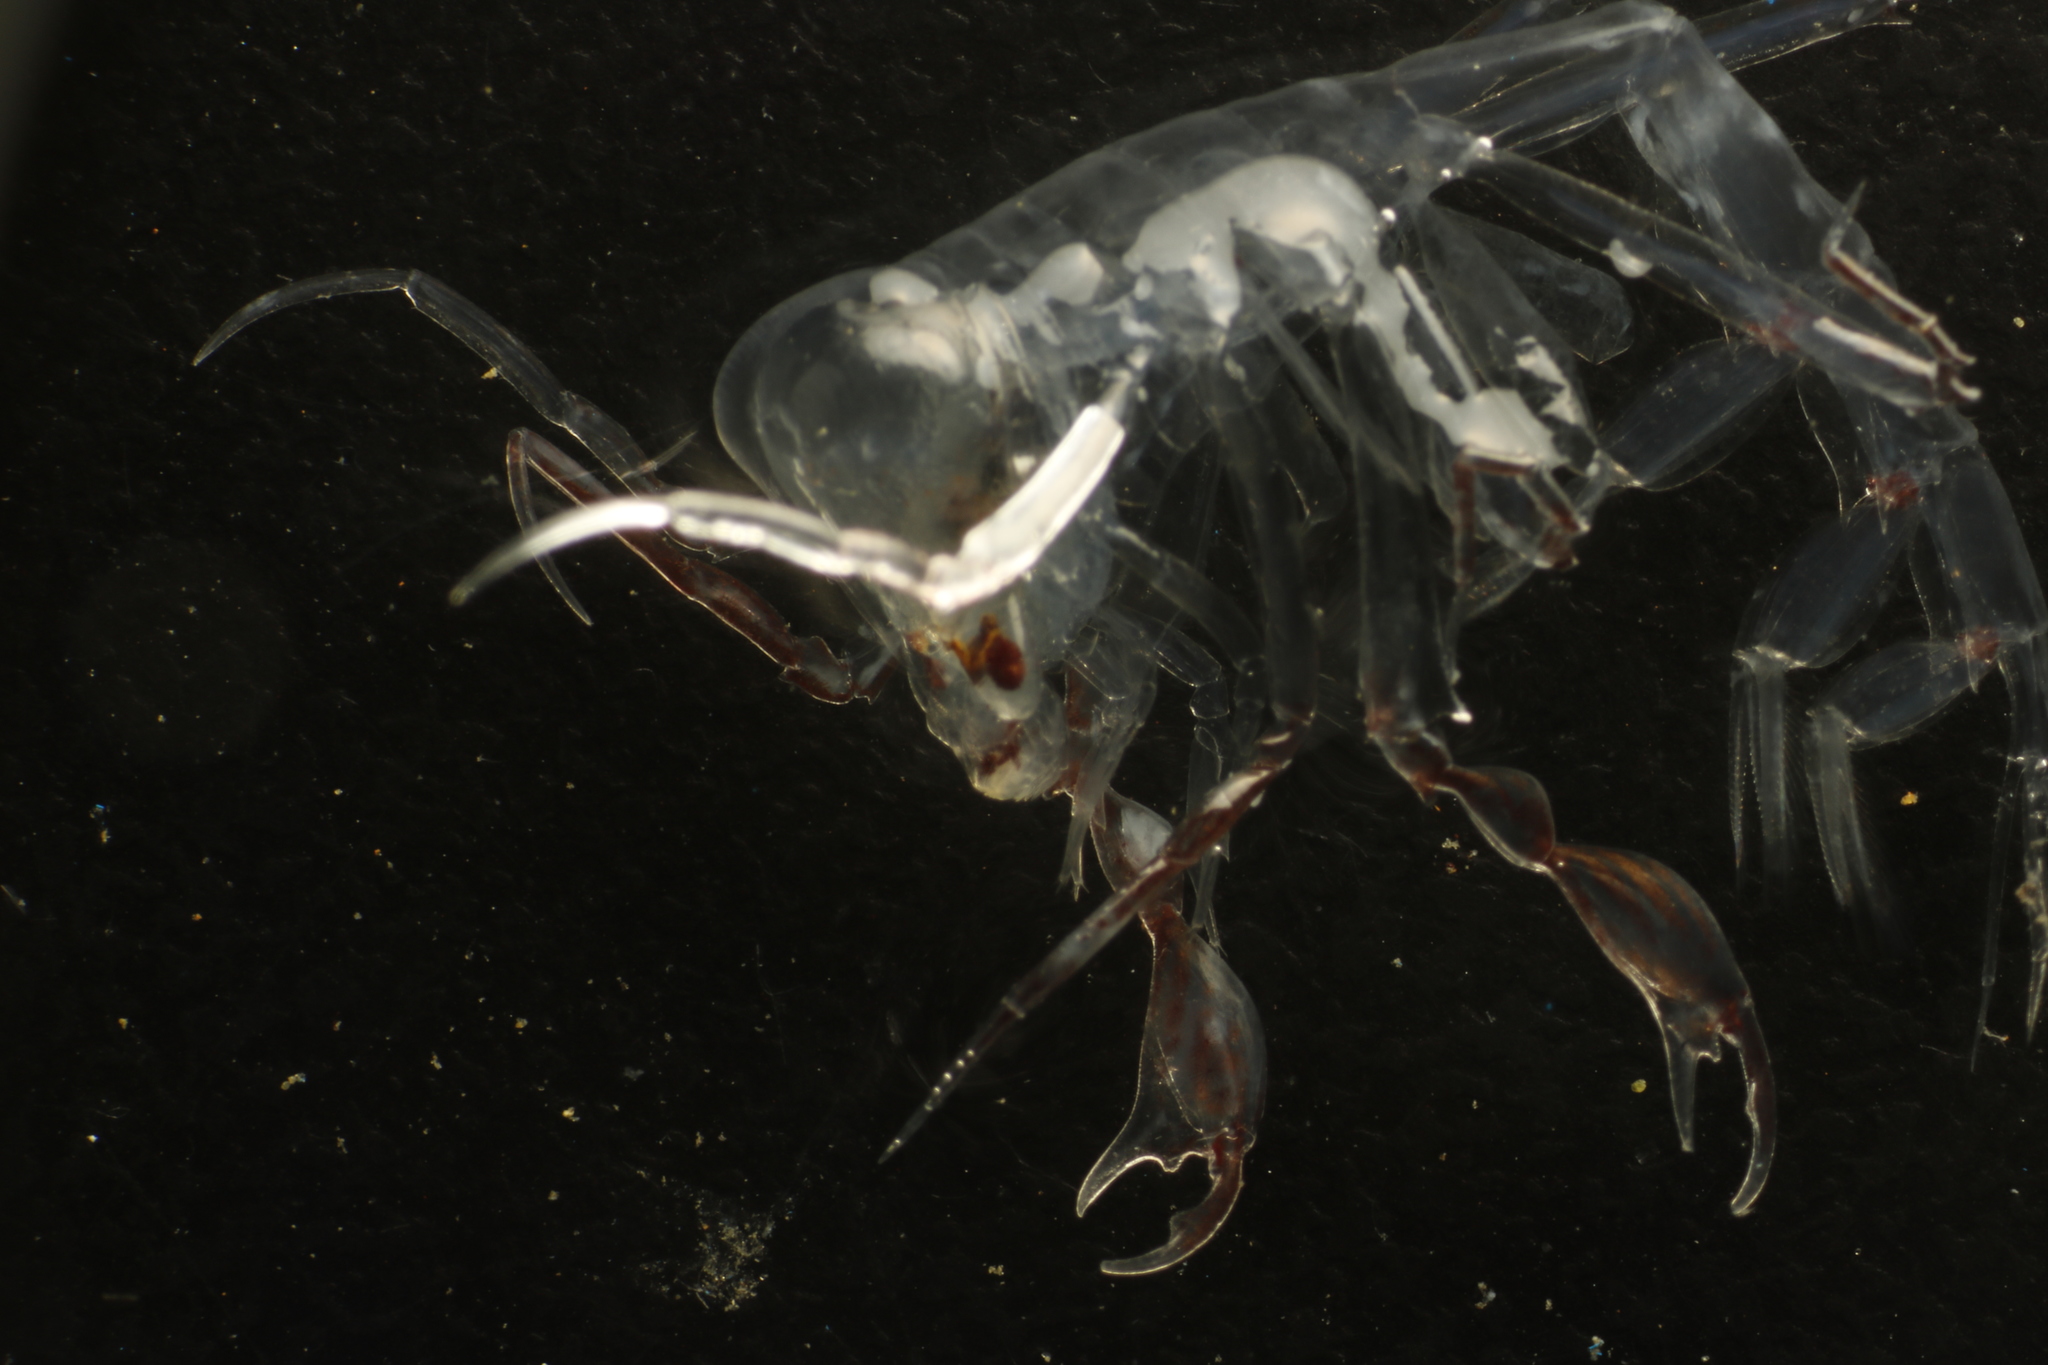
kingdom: Animalia
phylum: Arthropoda
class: Malacostraca
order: Amphipoda
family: Phronimidae
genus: Phronima
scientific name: Phronima sedentaria
